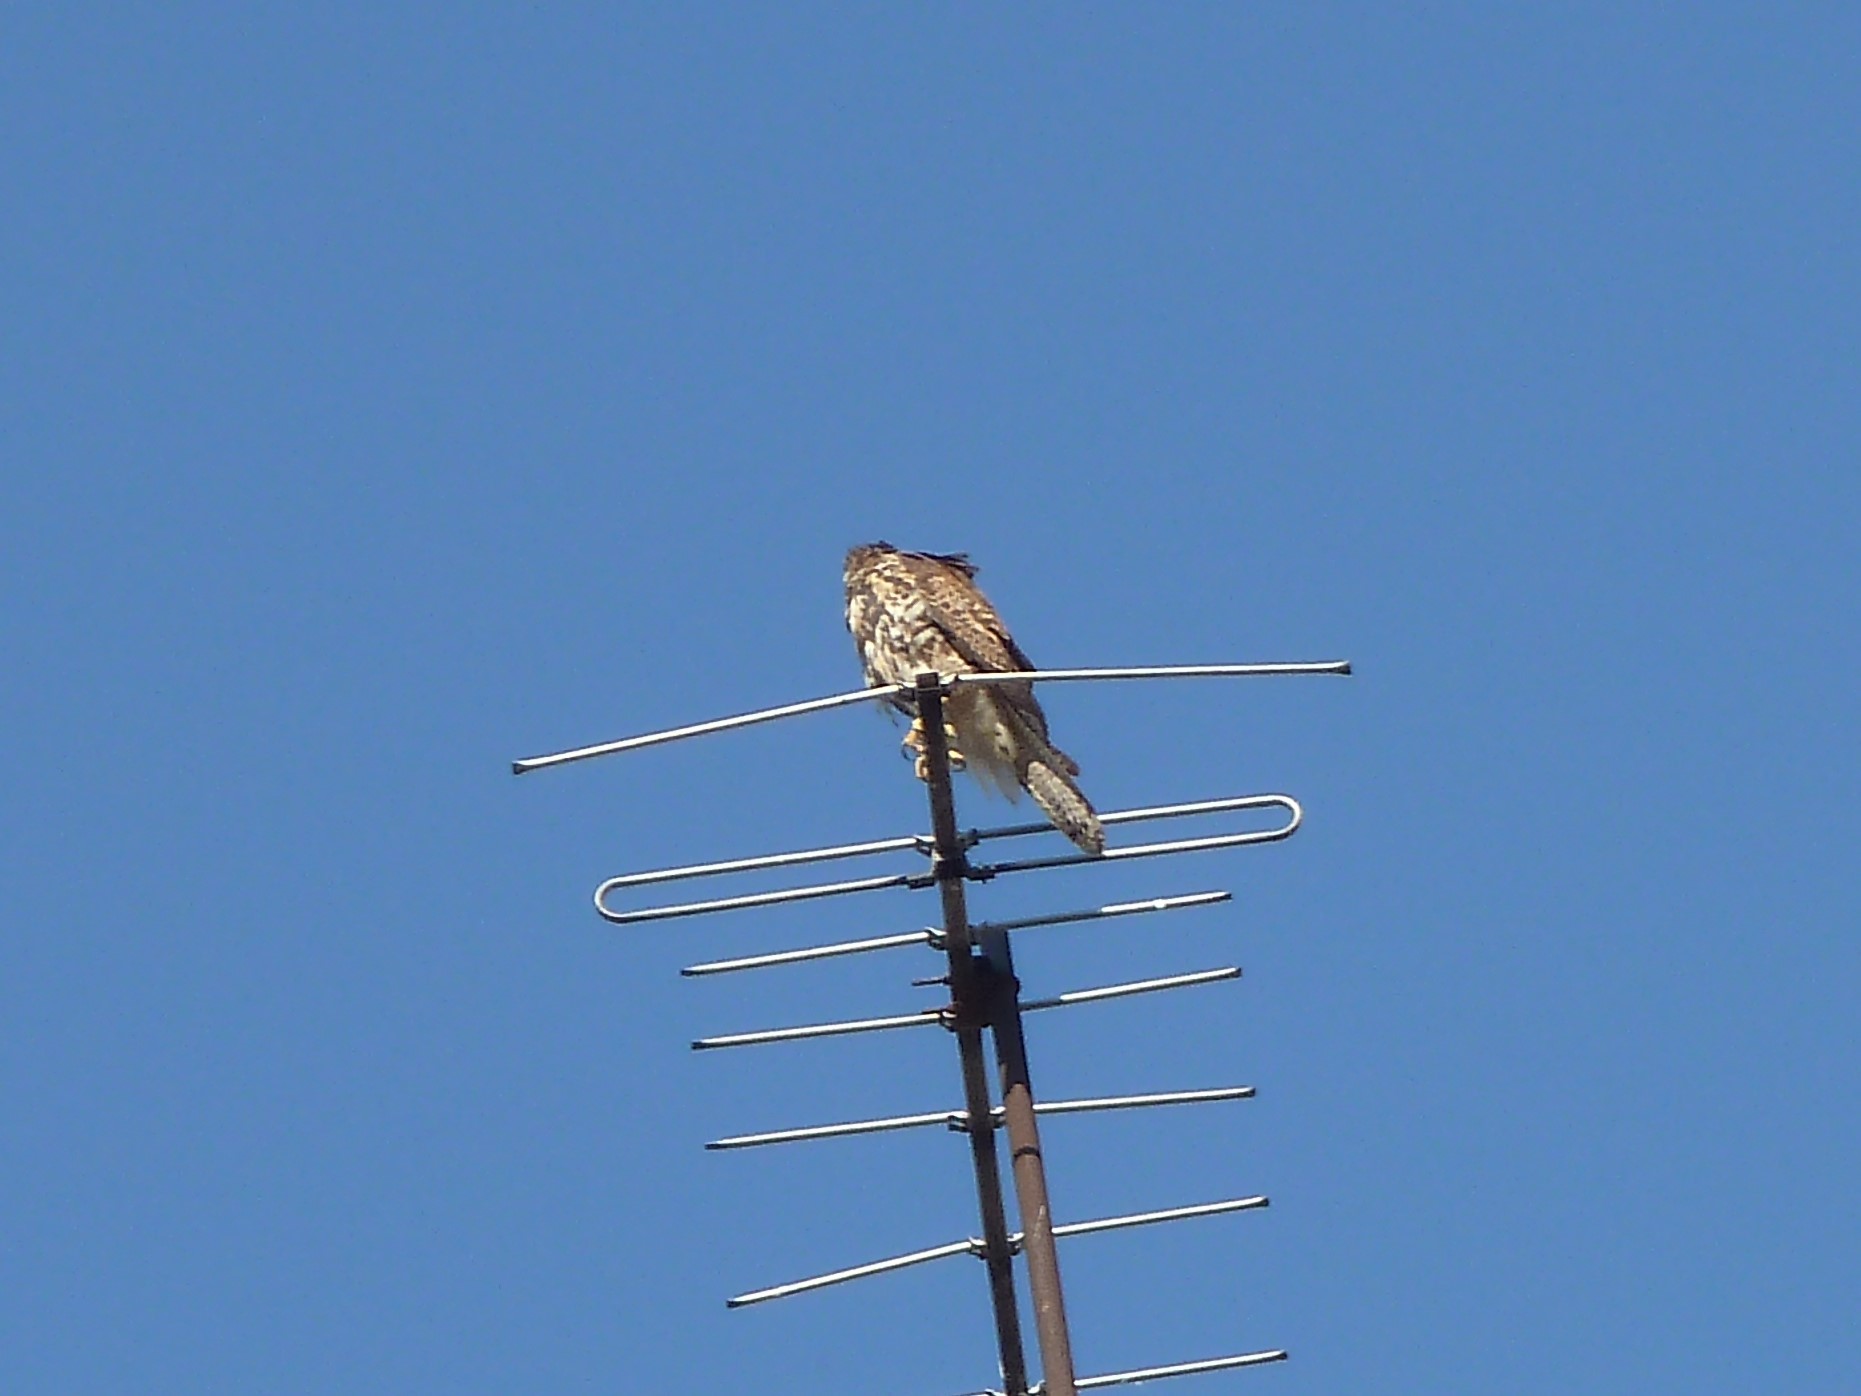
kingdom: Animalia
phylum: Chordata
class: Aves
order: Accipitriformes
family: Accipitridae
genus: Parabuteo
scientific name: Parabuteo unicinctus
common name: Harris's hawk
